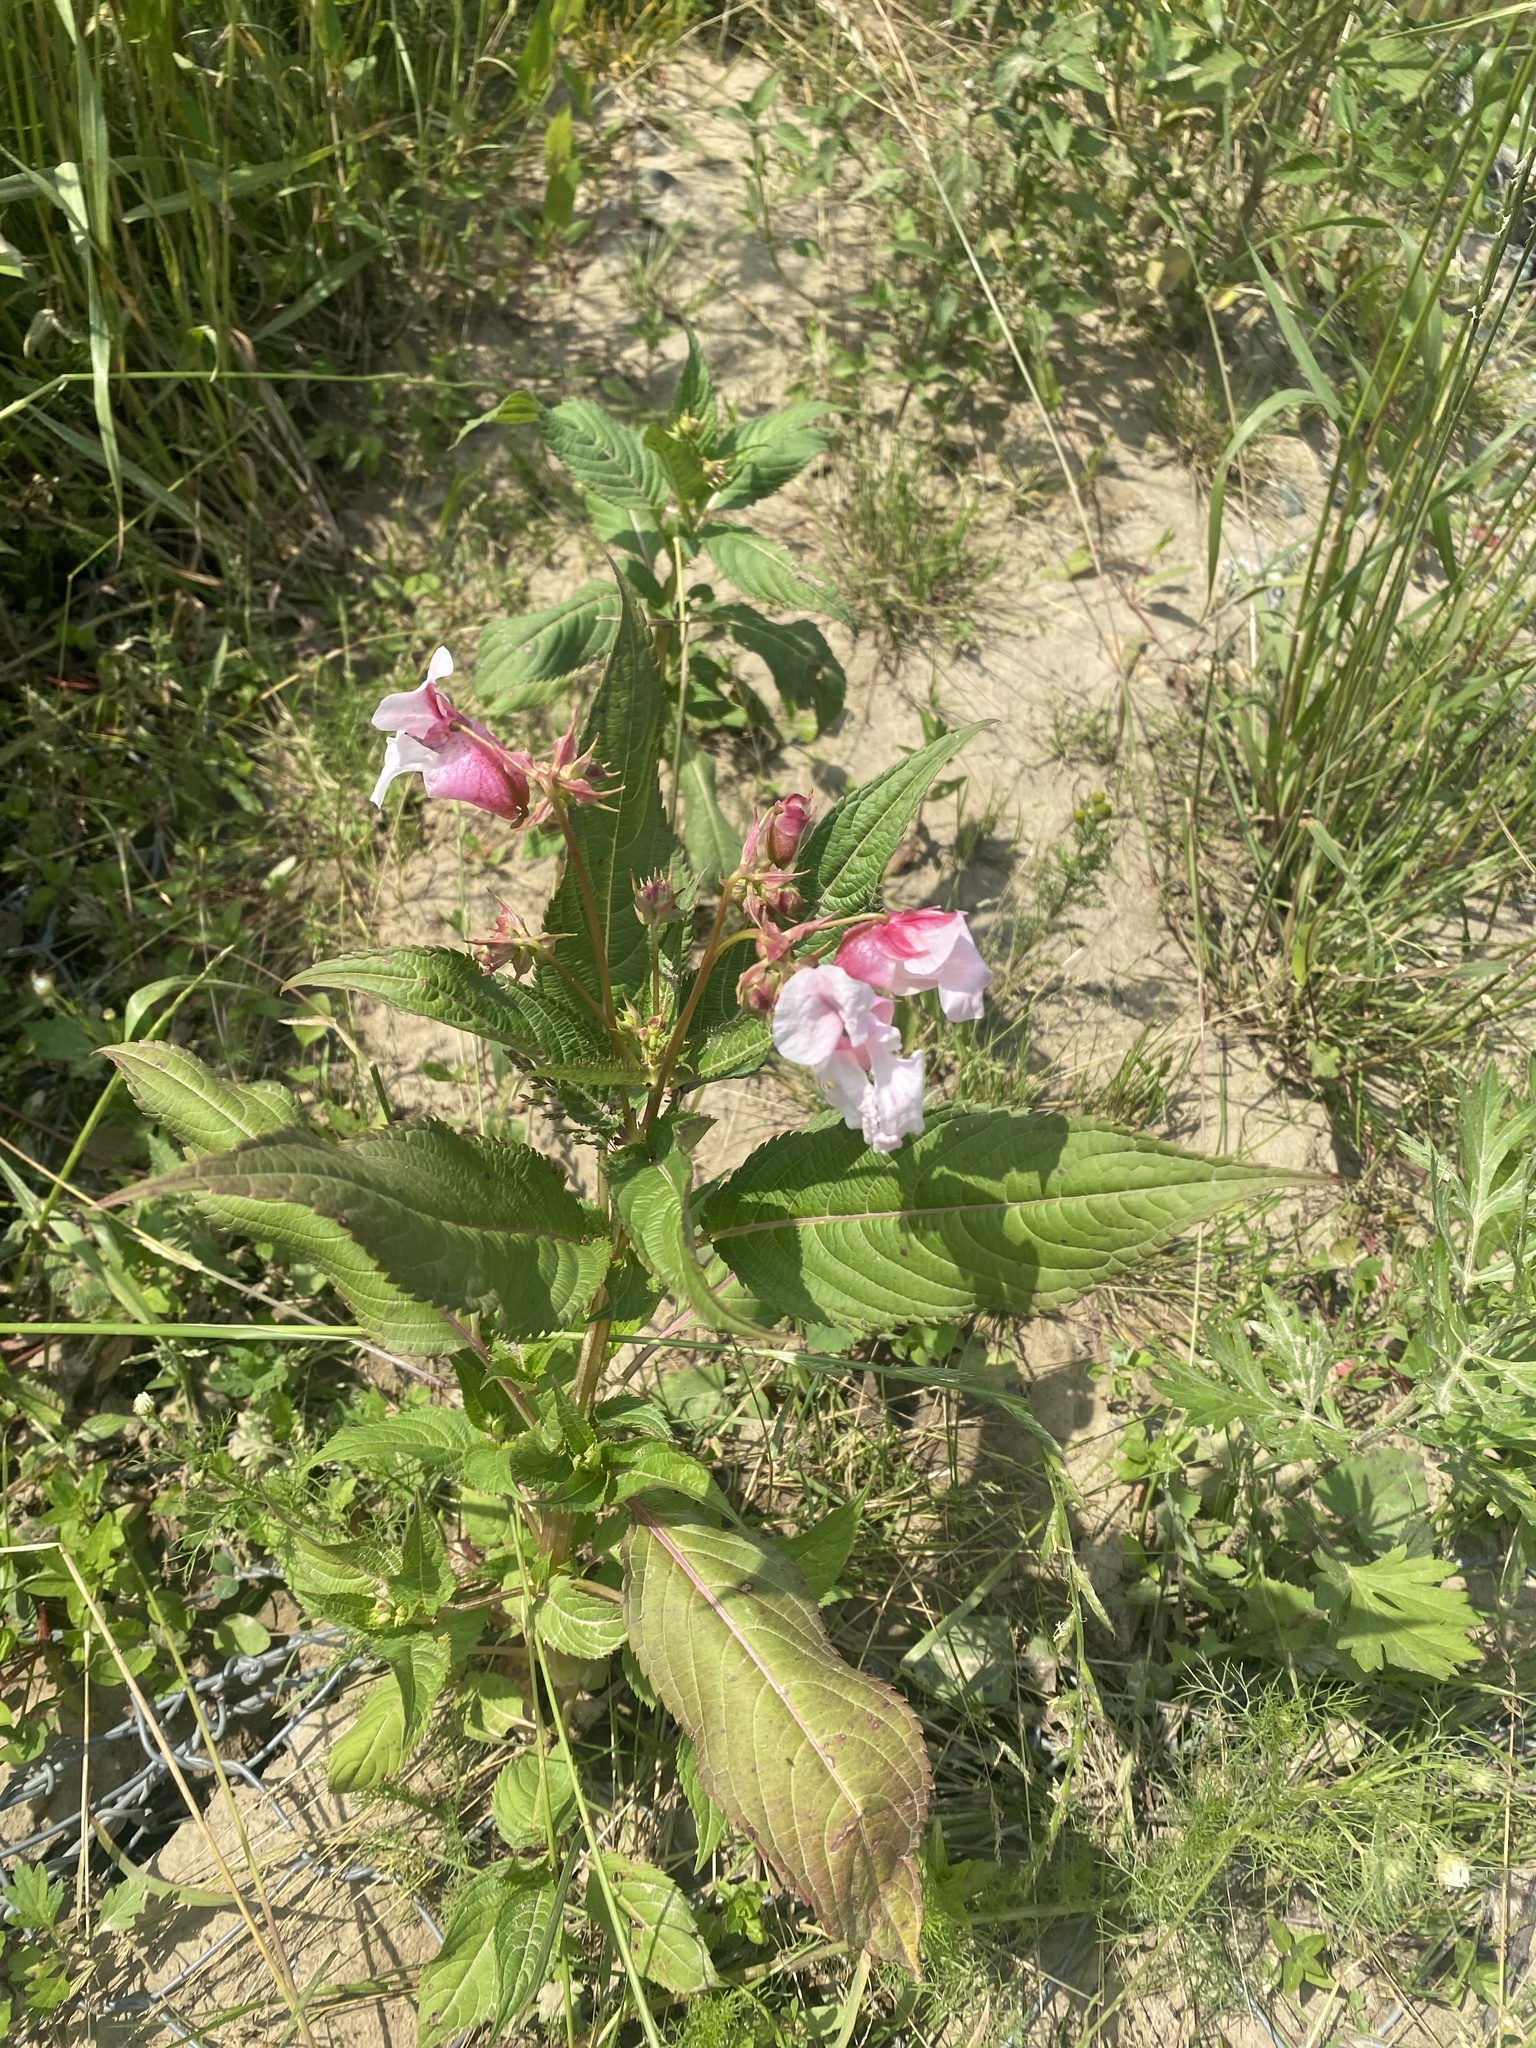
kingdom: Plantae
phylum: Tracheophyta
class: Magnoliopsida
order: Ericales
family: Balsaminaceae
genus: Impatiens
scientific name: Impatiens glandulifera
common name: Himalayan balsam
